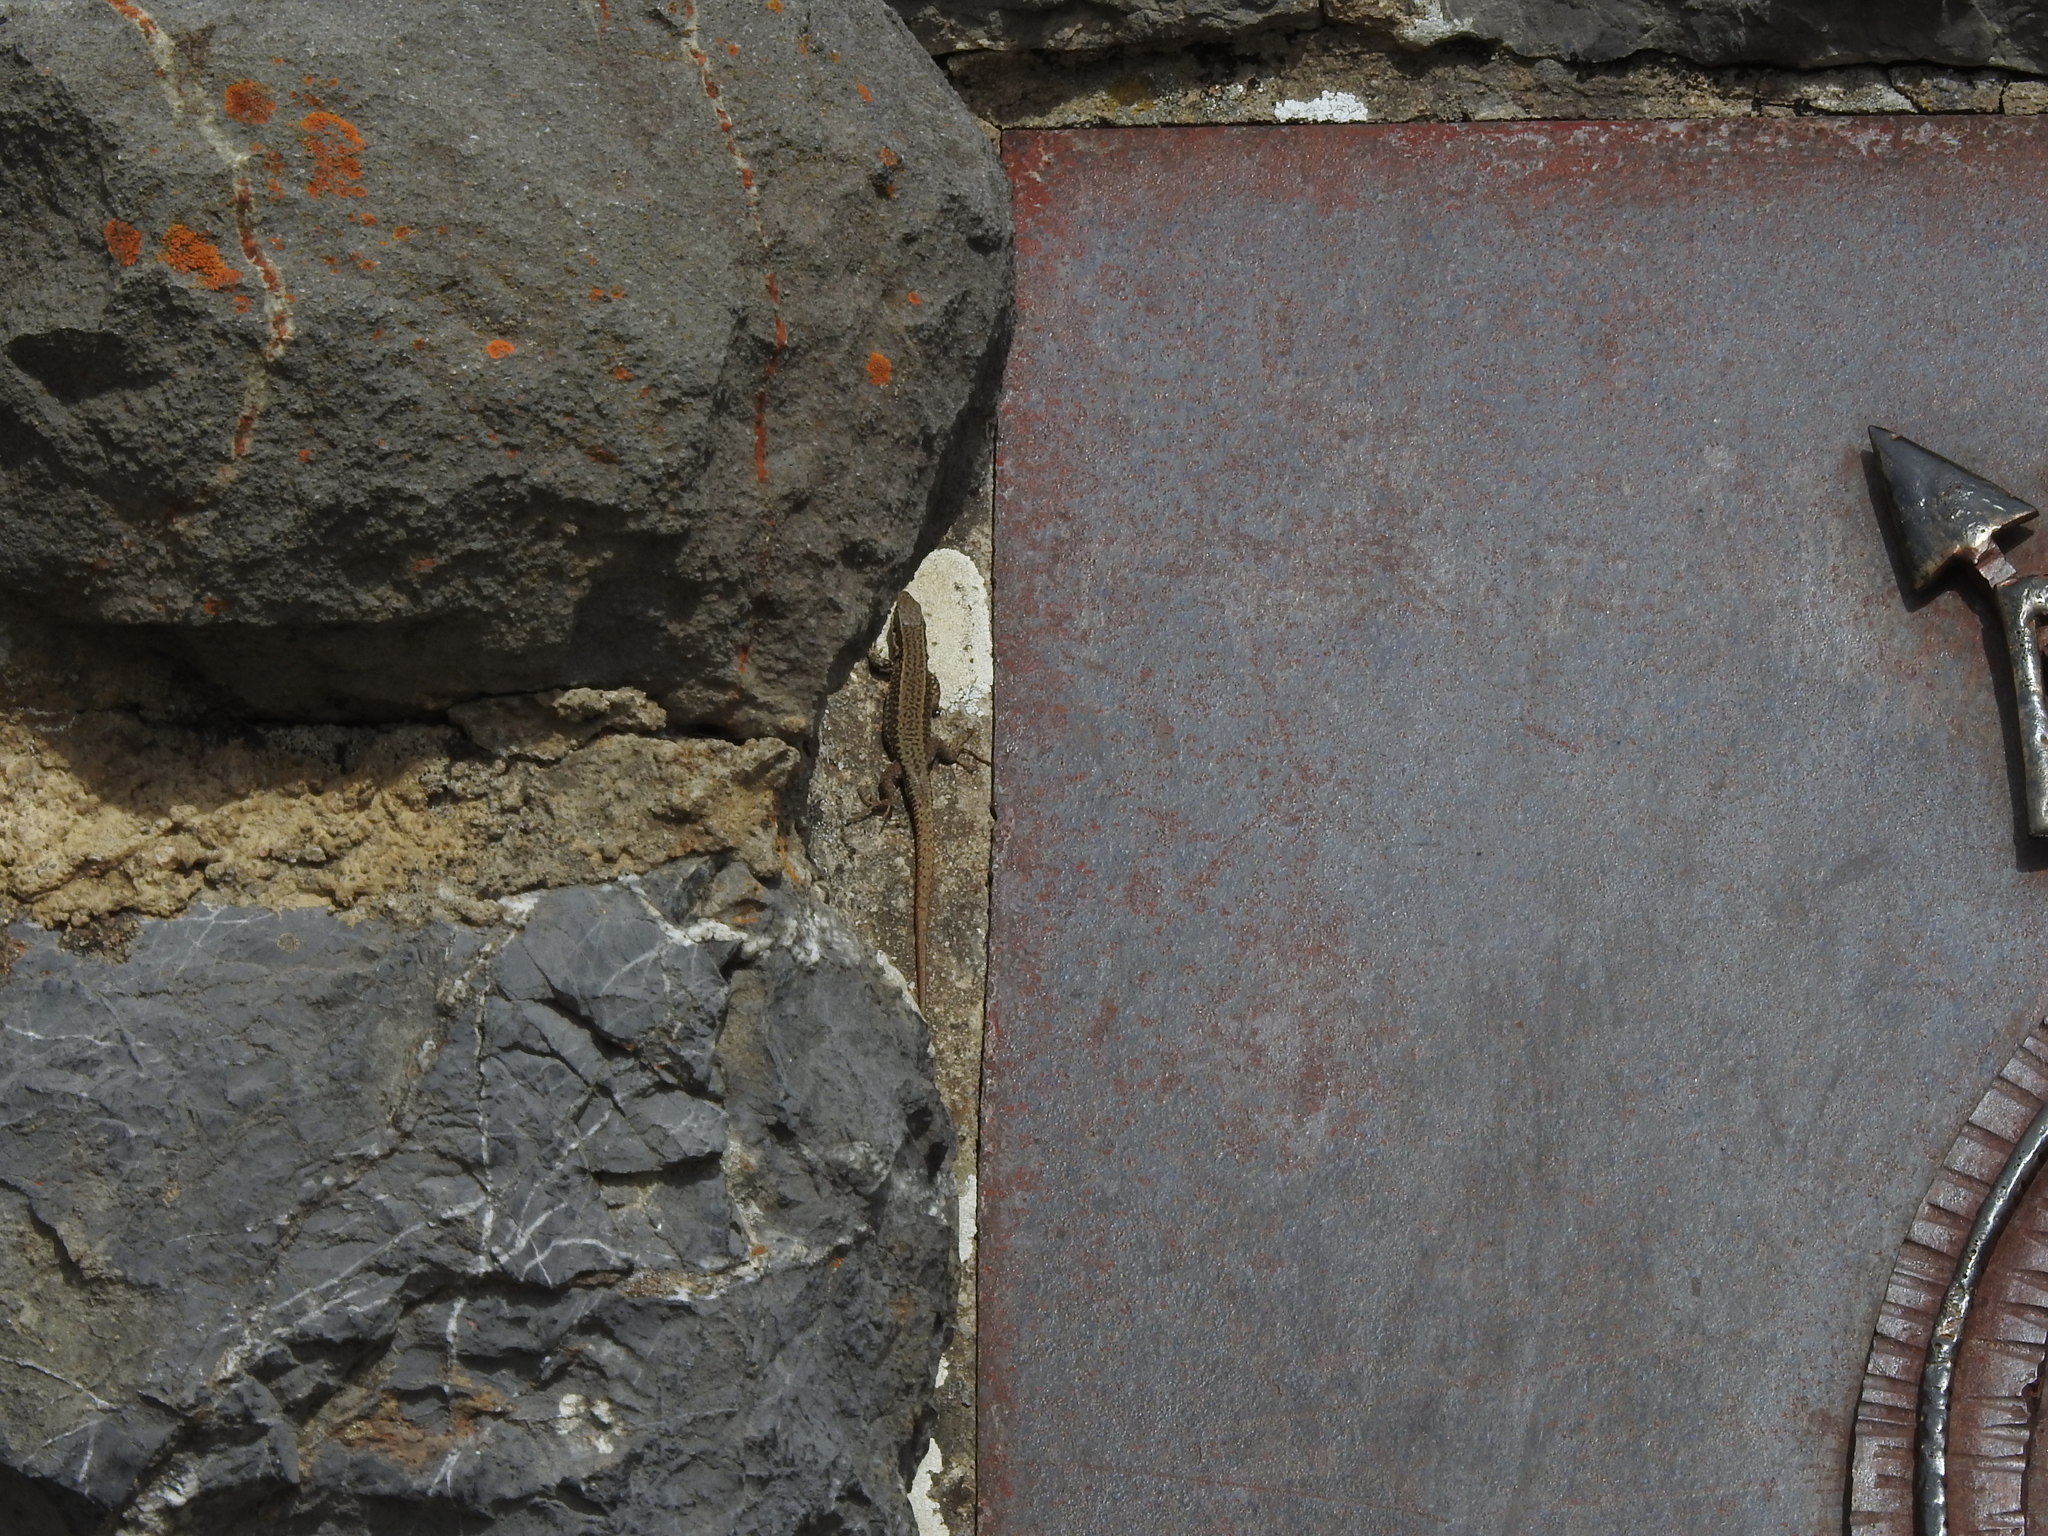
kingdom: Animalia
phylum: Chordata
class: Squamata
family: Lacertidae
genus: Podarcis
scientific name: Podarcis muralis
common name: Common wall lizard
